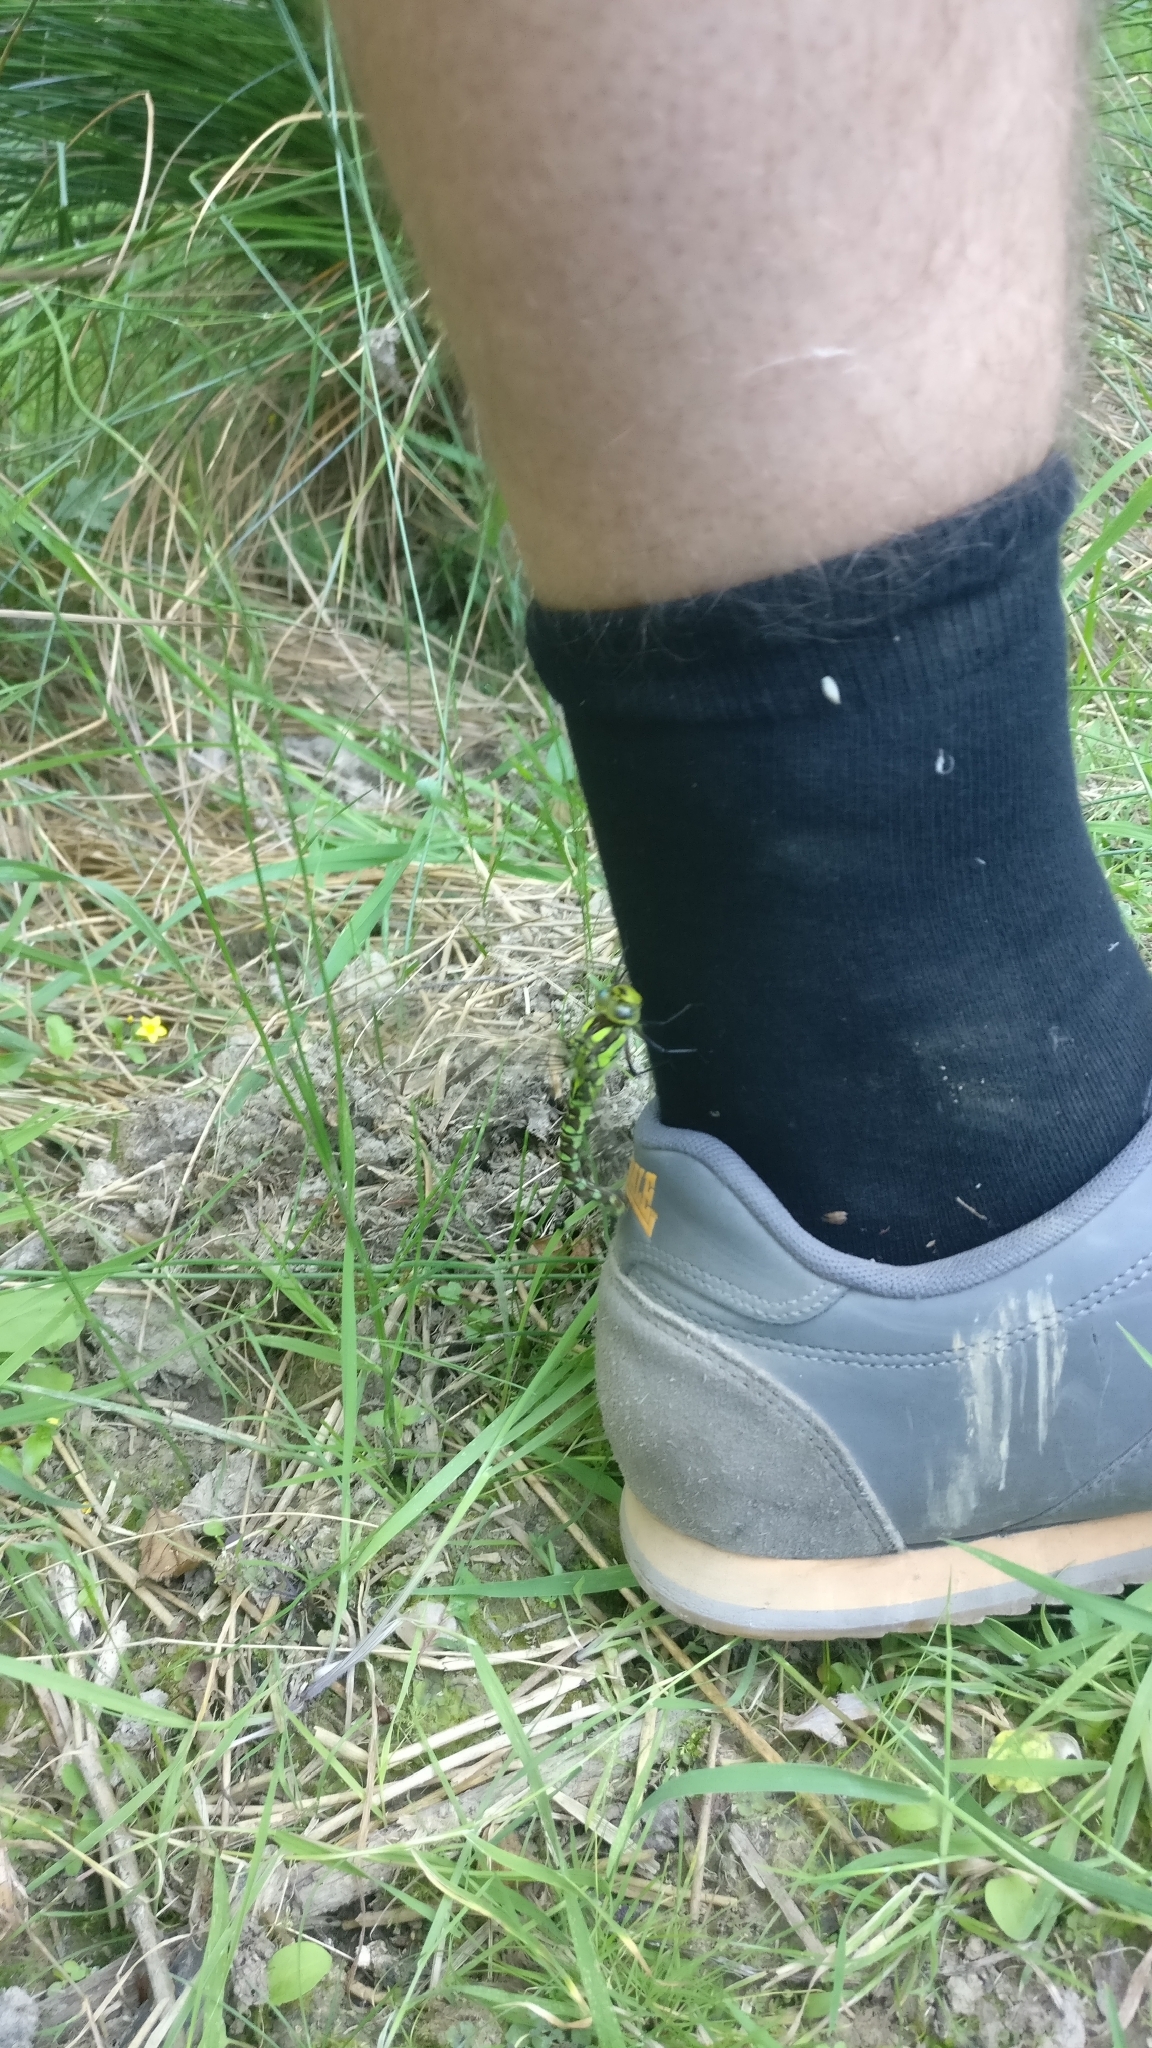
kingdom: Animalia
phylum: Arthropoda
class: Insecta
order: Odonata
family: Aeshnidae
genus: Aeshna
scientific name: Aeshna cyanea
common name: Southern hawker
